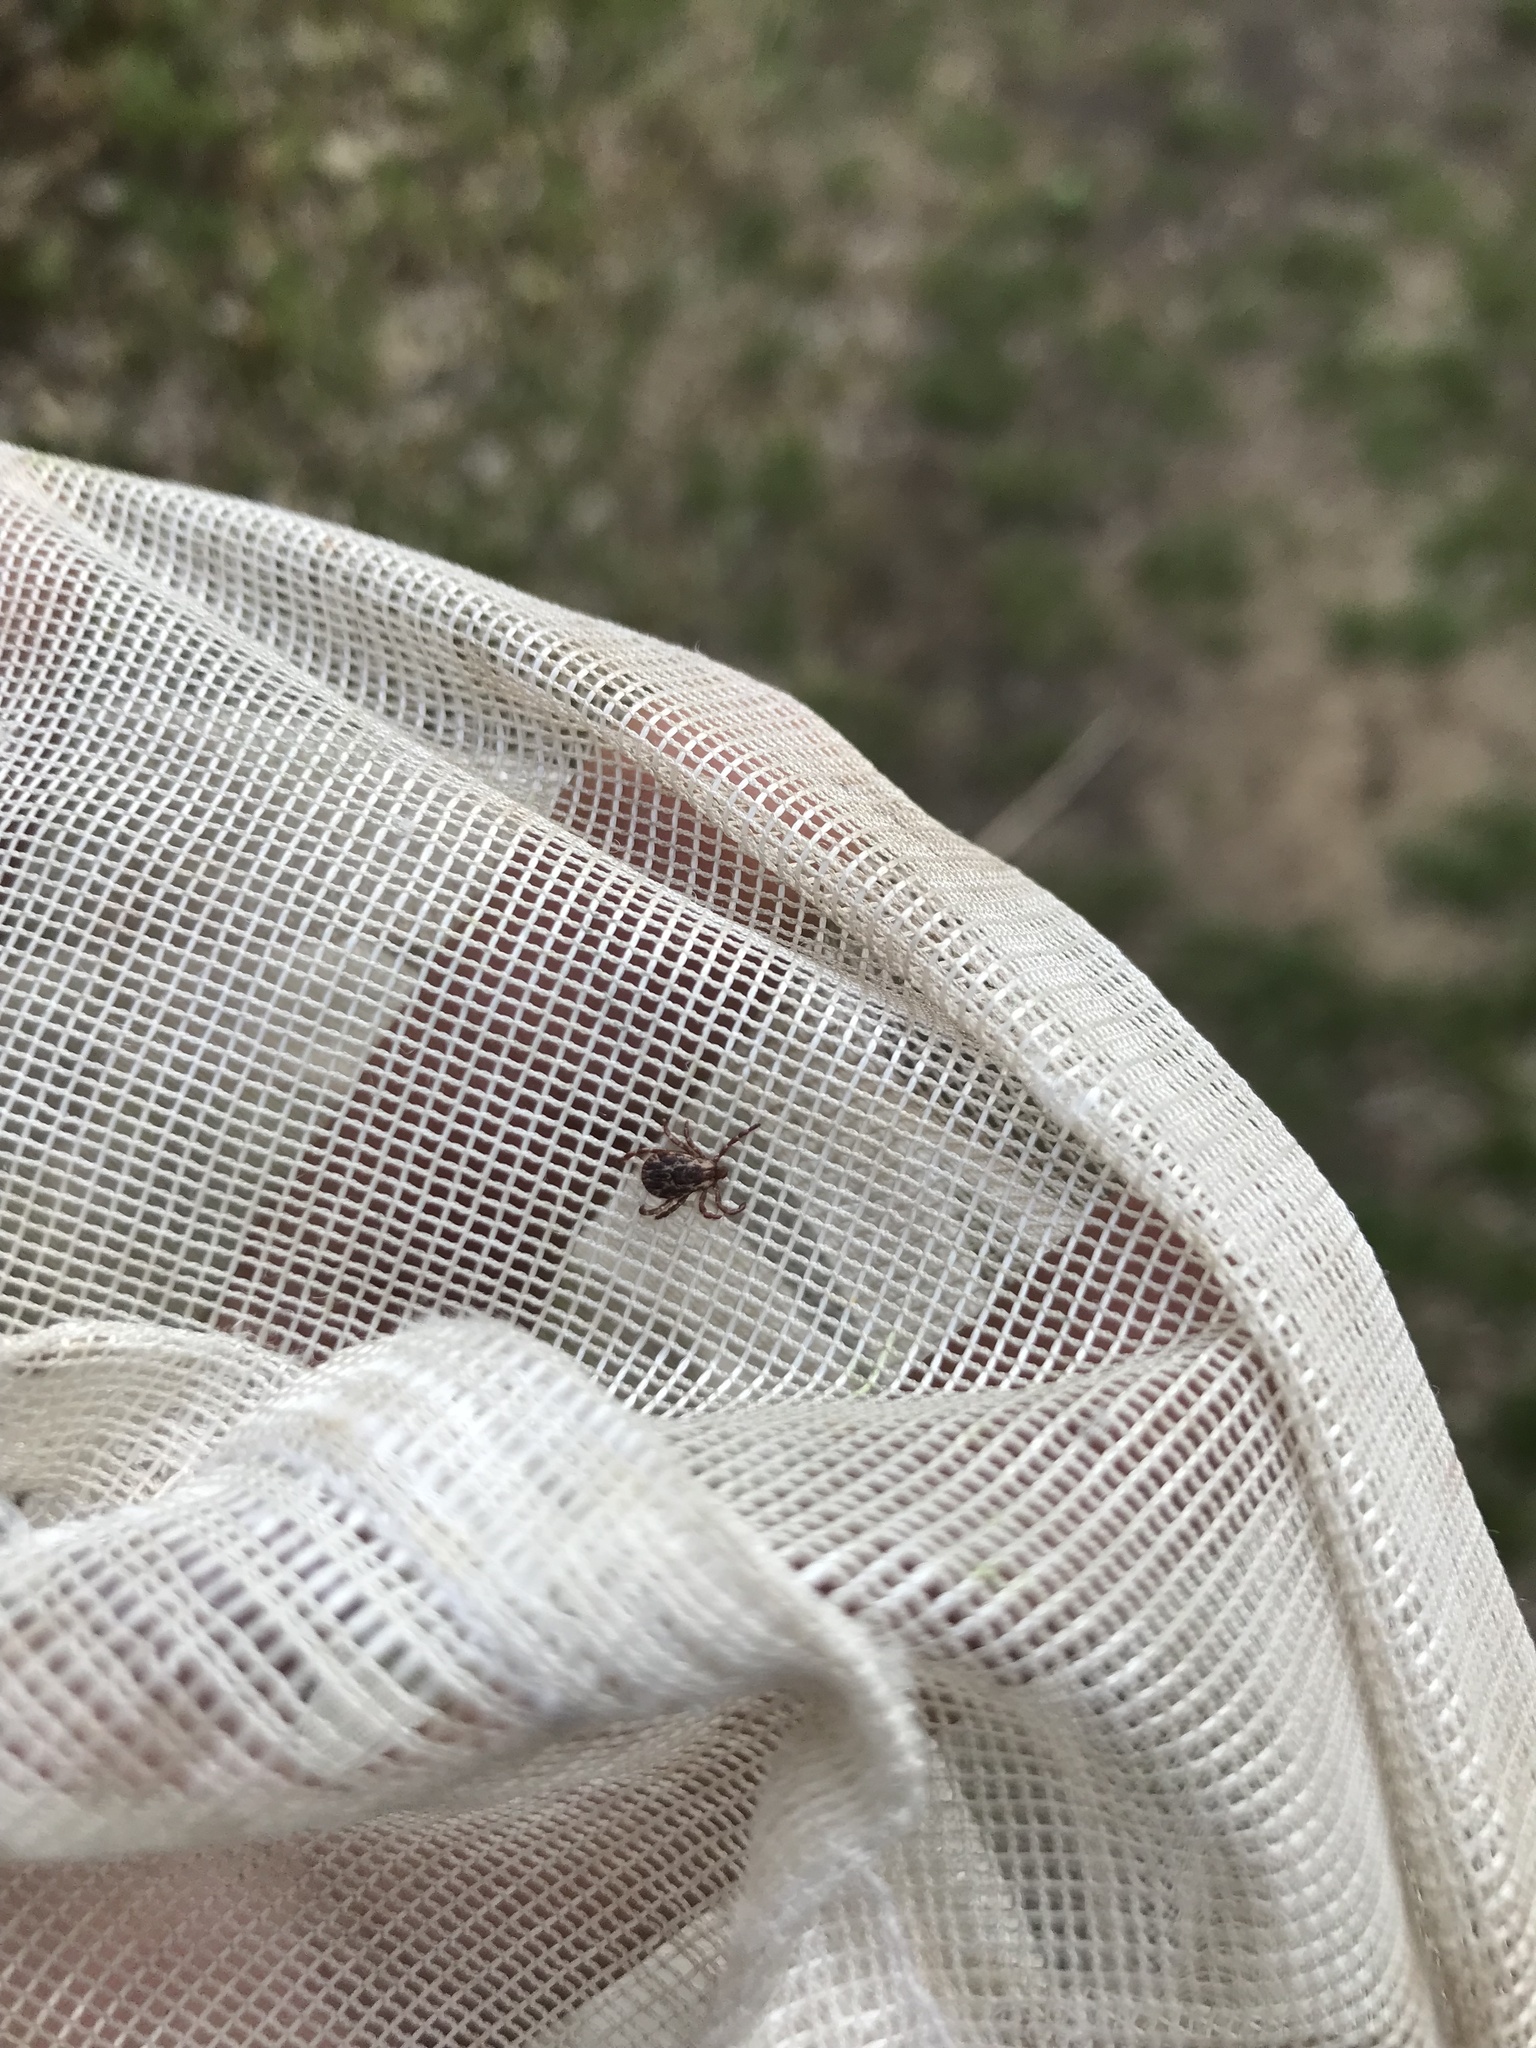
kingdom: Animalia
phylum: Arthropoda
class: Arachnida
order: Ixodida
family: Ixodidae
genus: Dermacentor
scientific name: Dermacentor variabilis
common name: American dog tick
